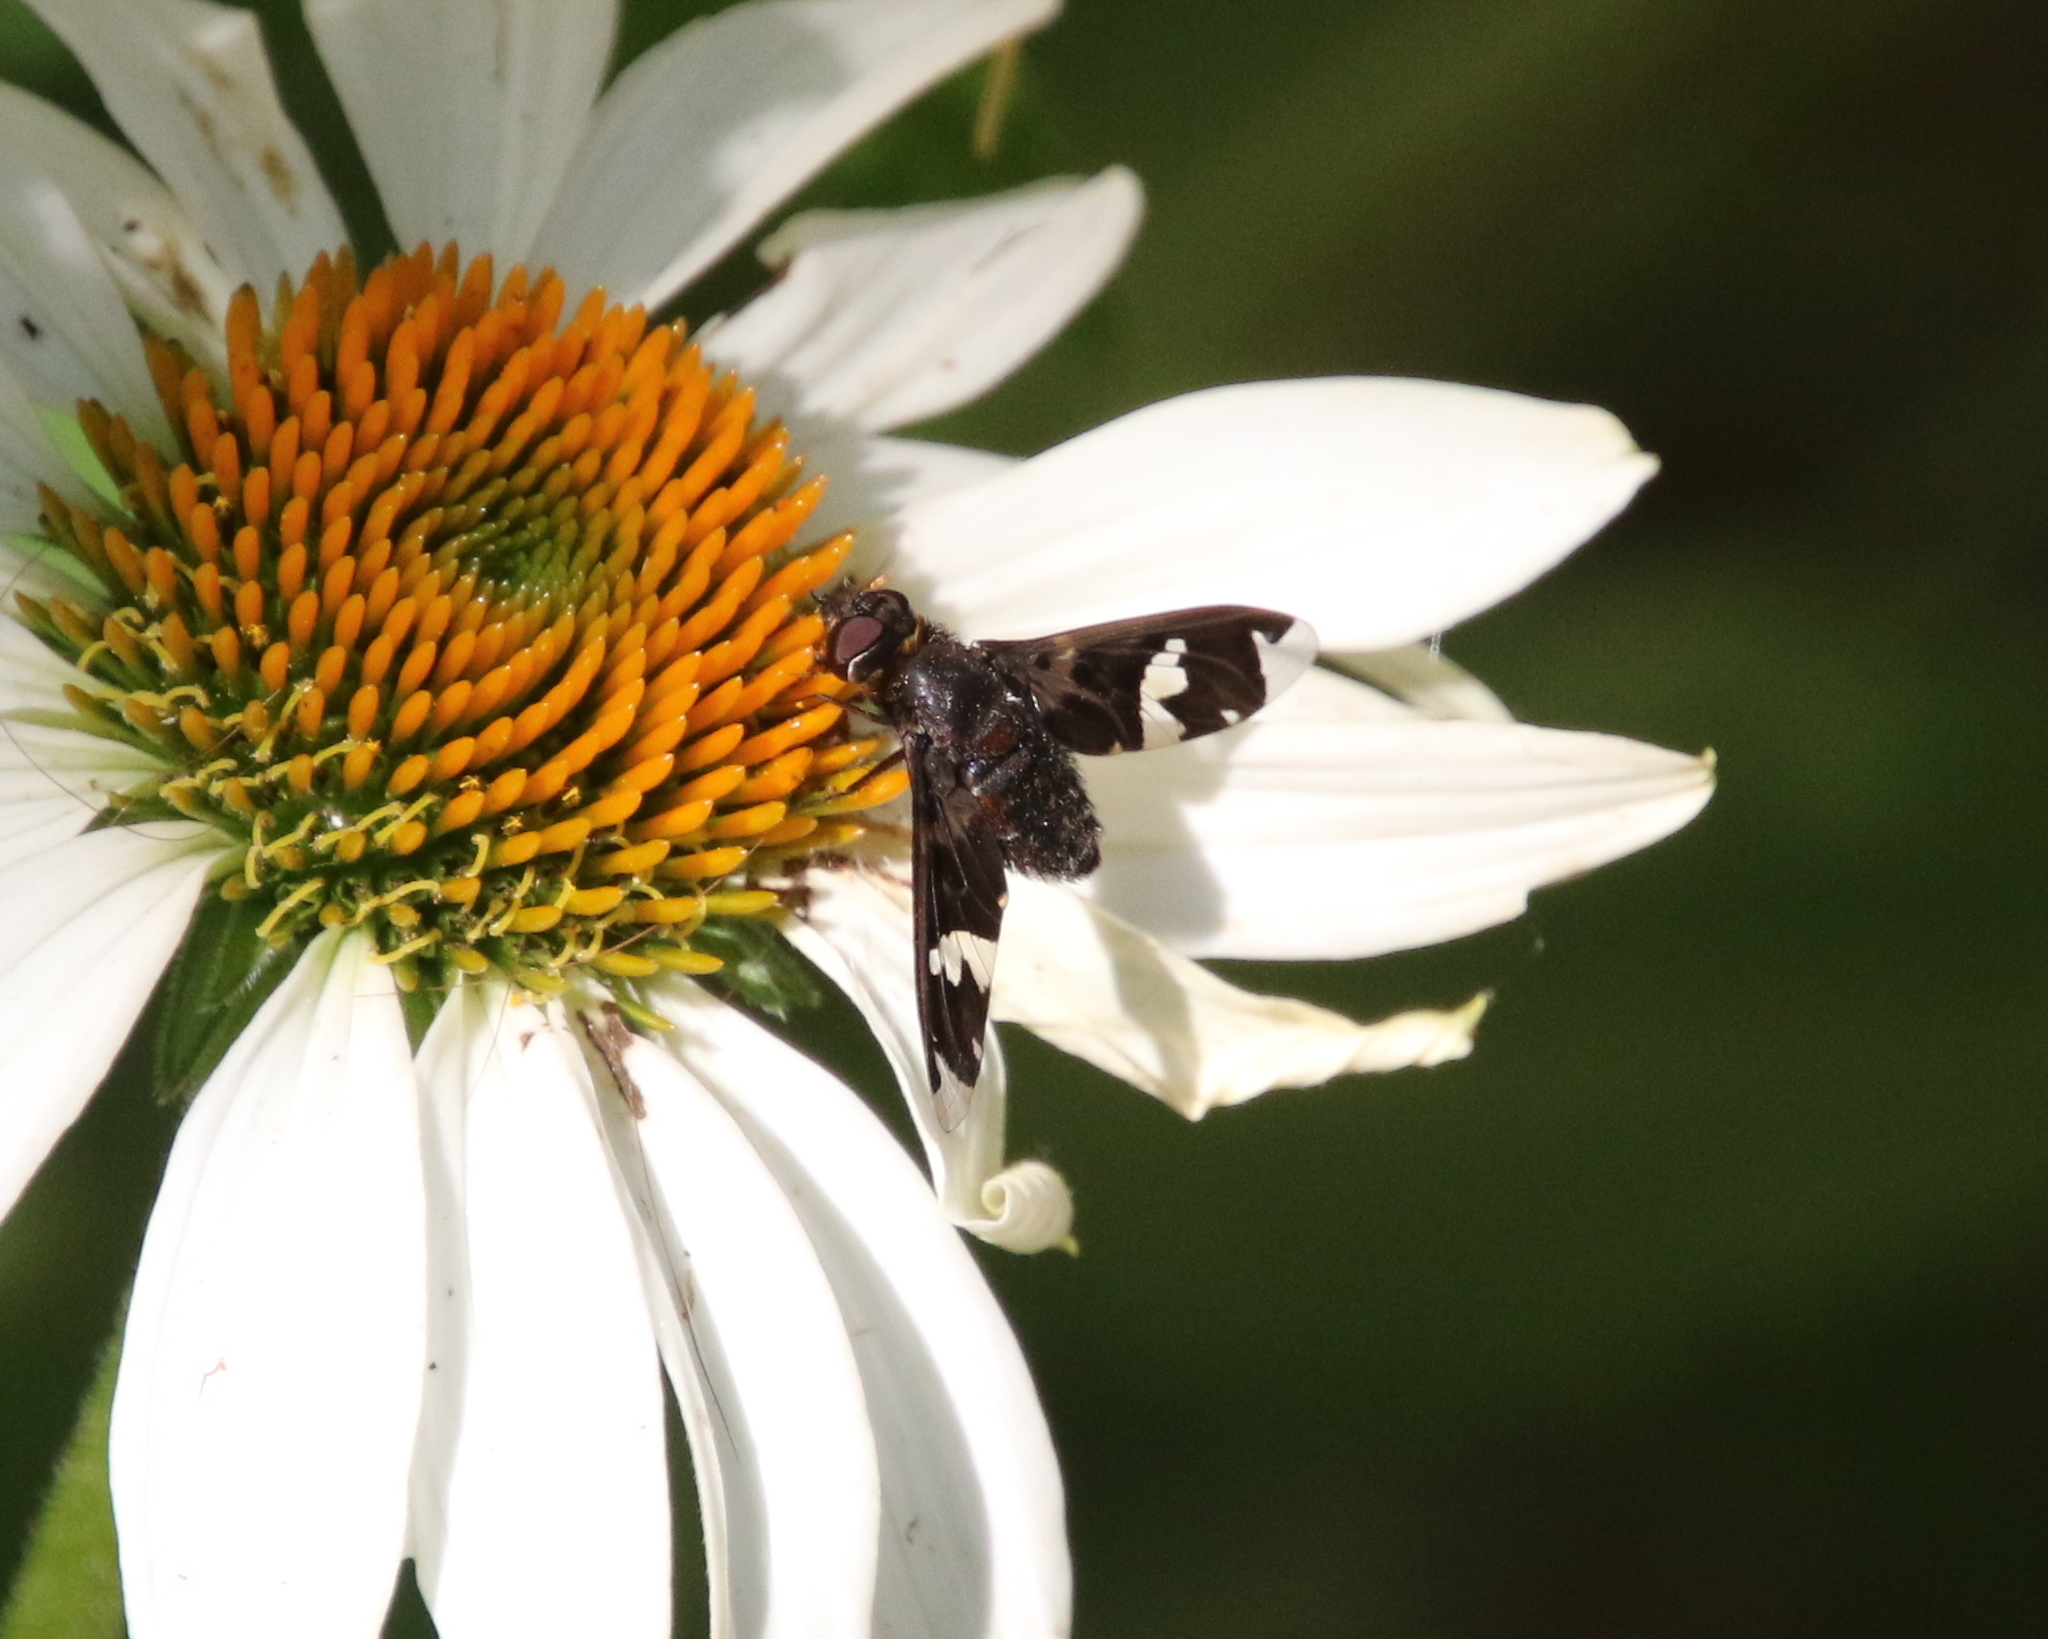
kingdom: Animalia
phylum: Arthropoda
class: Insecta
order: Diptera
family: Bombyliidae
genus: Exoprosopa
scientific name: Exoprosopa decora
